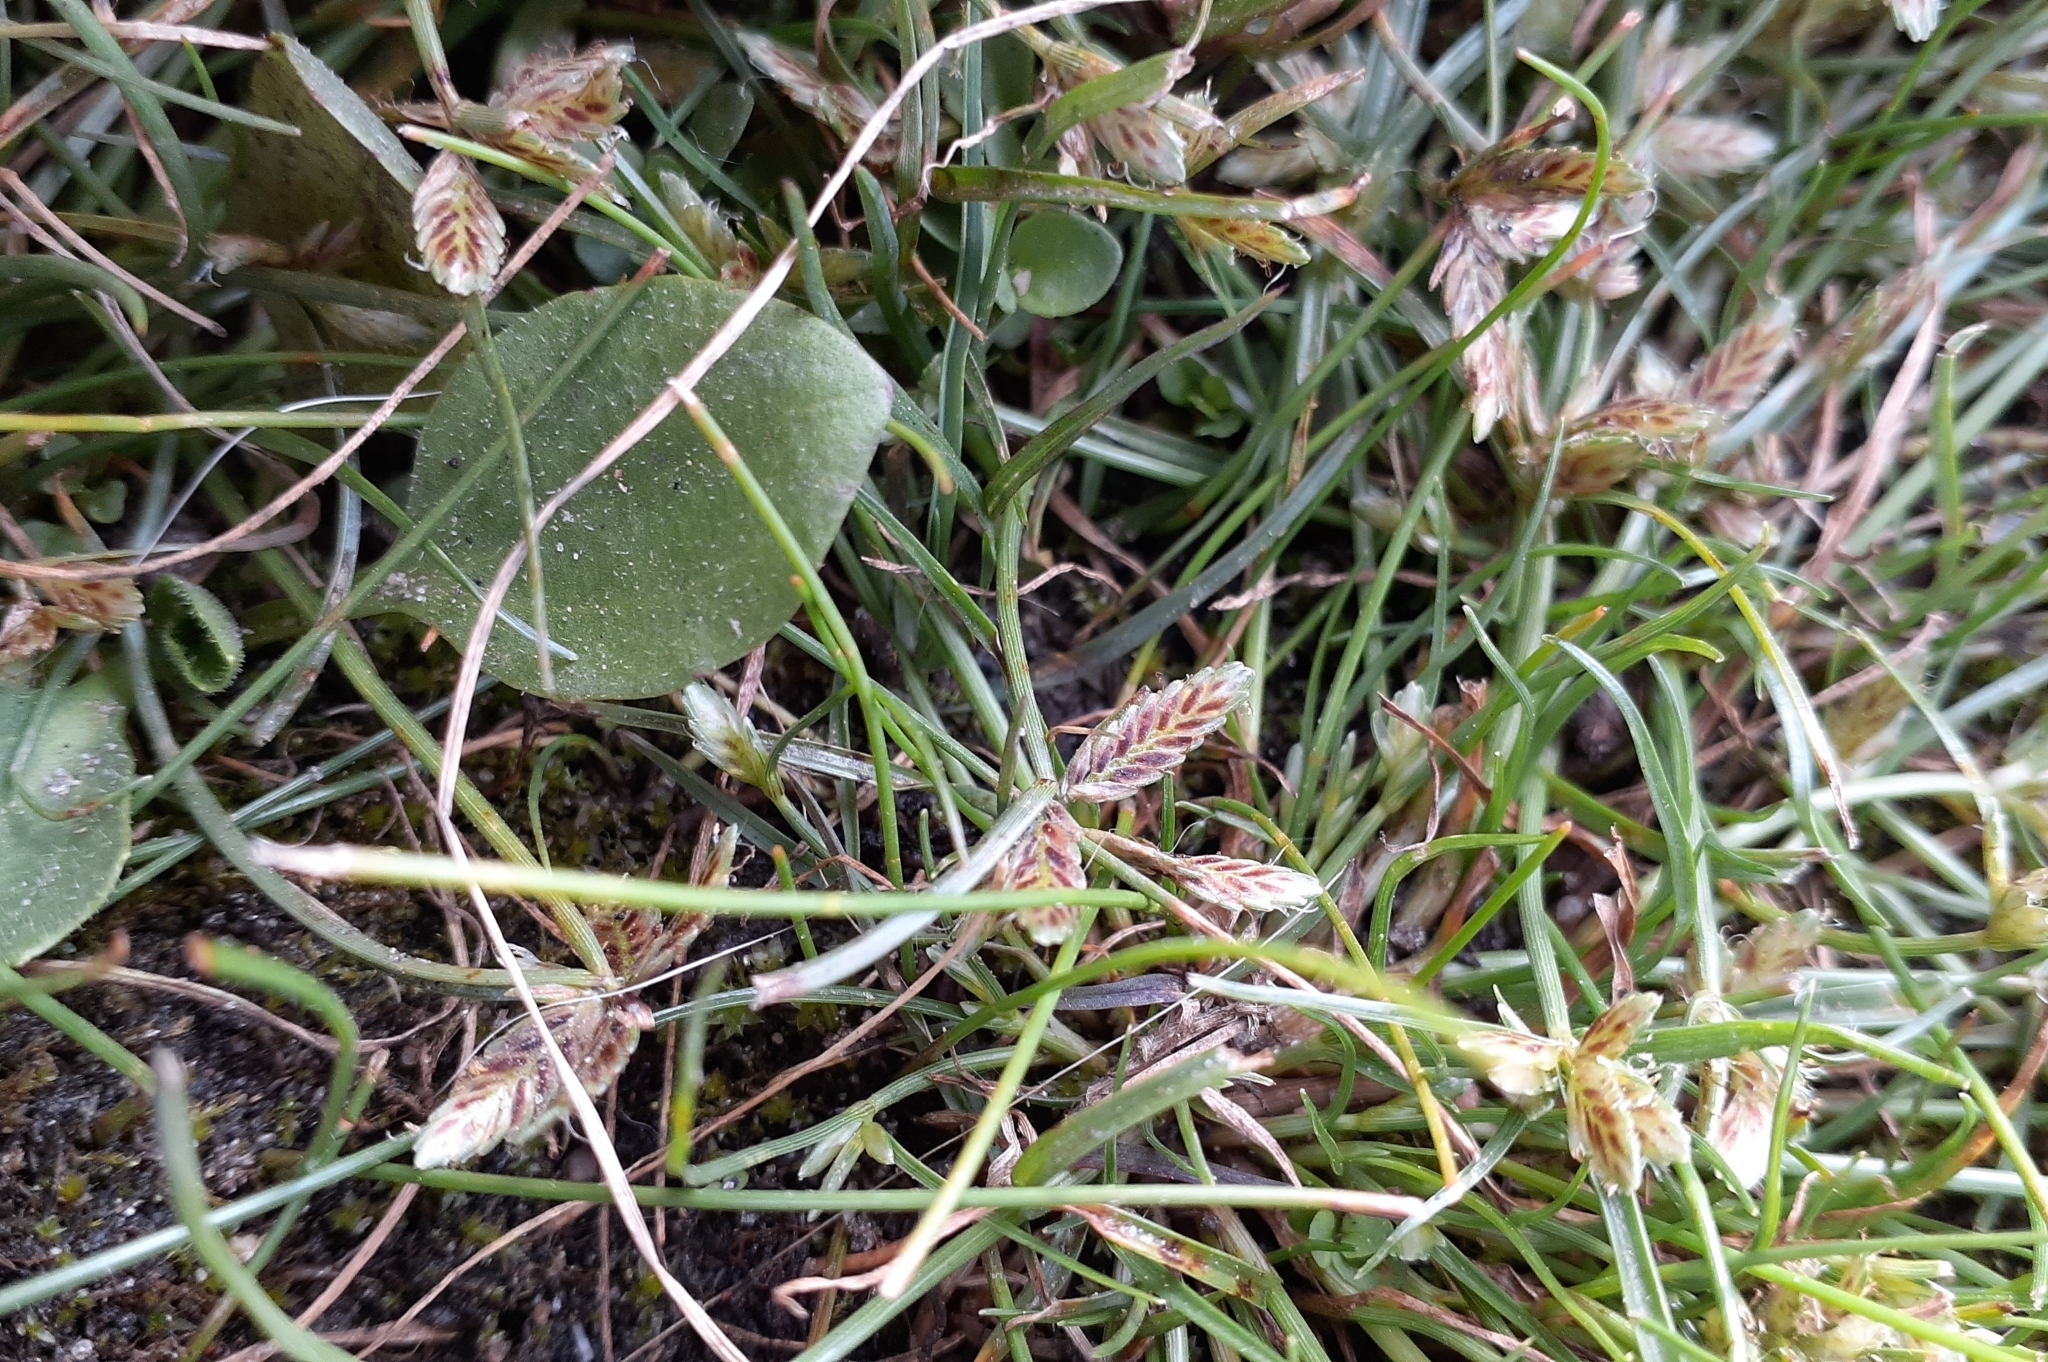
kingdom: Plantae
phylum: Tracheophyta
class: Liliopsida
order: Poales
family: Cyperaceae
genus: Cyperus
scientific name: Cyperus bipartitus
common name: Brook flatsedge
